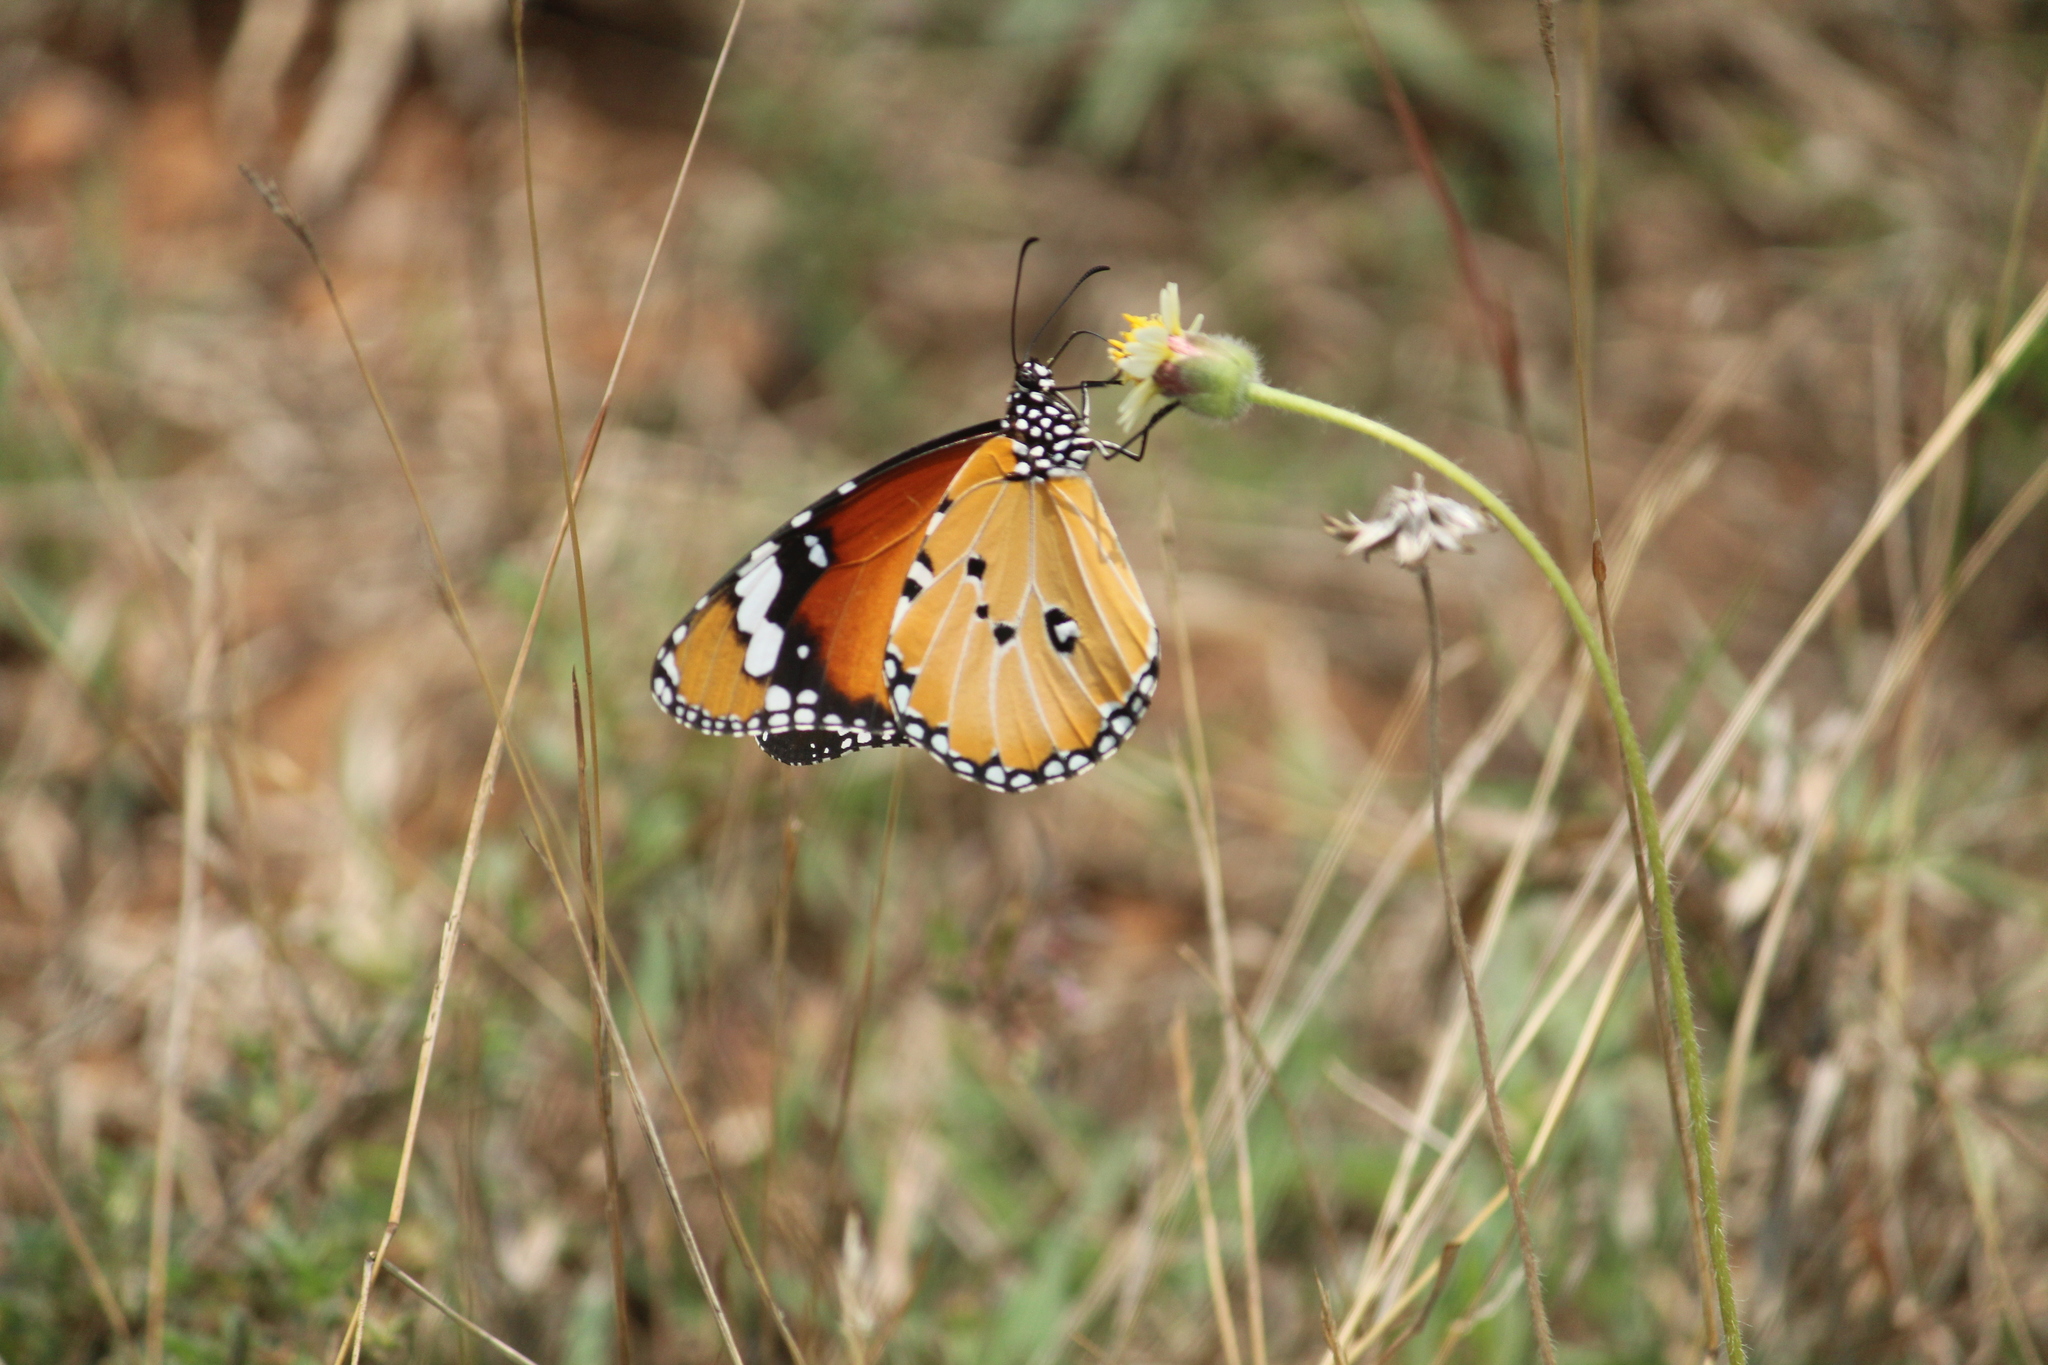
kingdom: Animalia
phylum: Arthropoda
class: Insecta
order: Lepidoptera
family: Nymphalidae
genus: Danaus
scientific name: Danaus chrysippus
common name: Plain tiger
